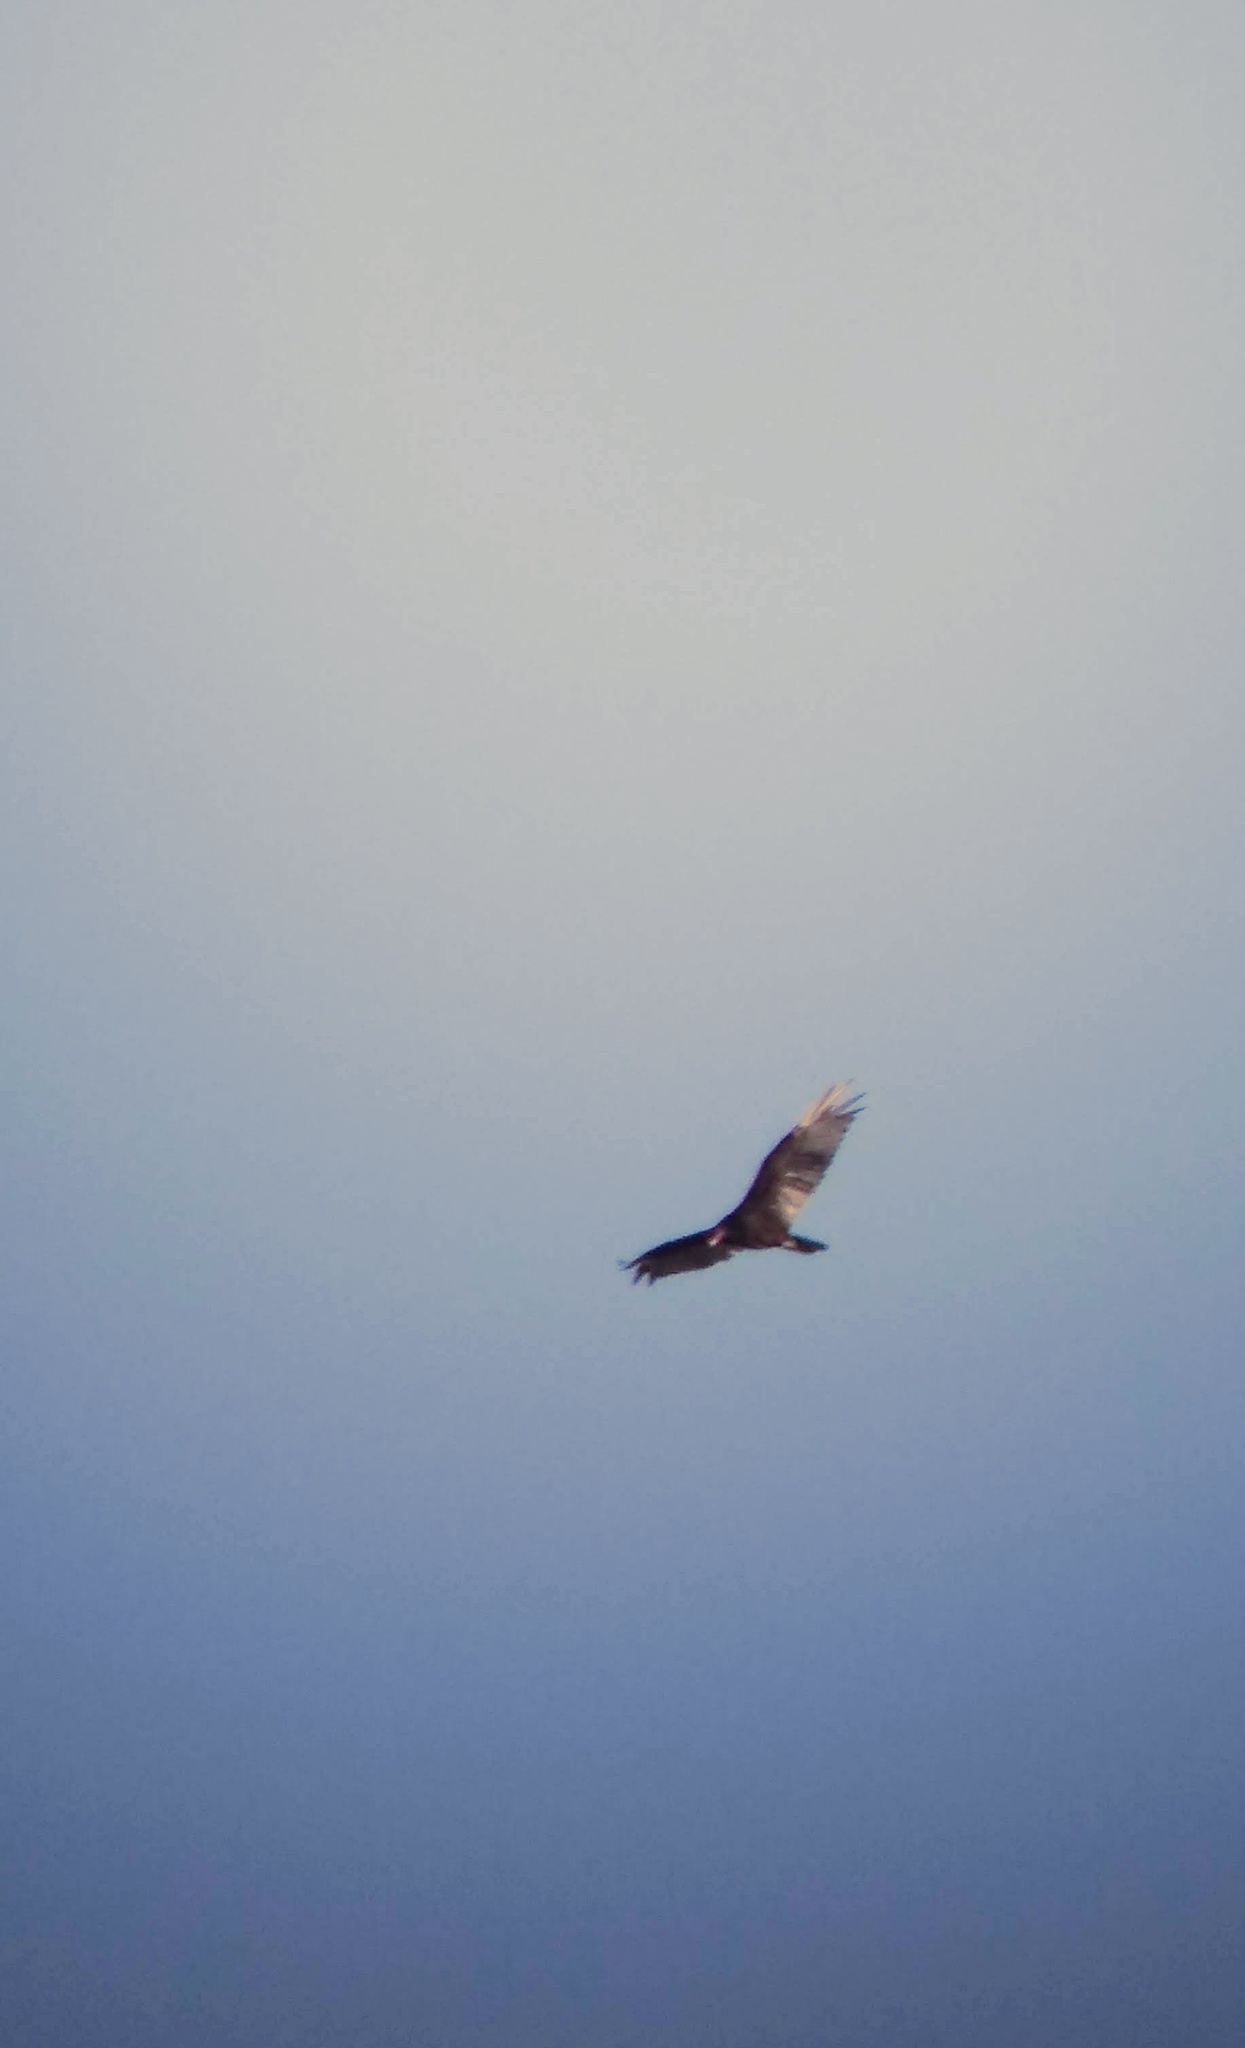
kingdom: Animalia
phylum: Chordata
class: Aves
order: Accipitriformes
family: Cathartidae
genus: Cathartes
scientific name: Cathartes aura
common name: Turkey vulture
